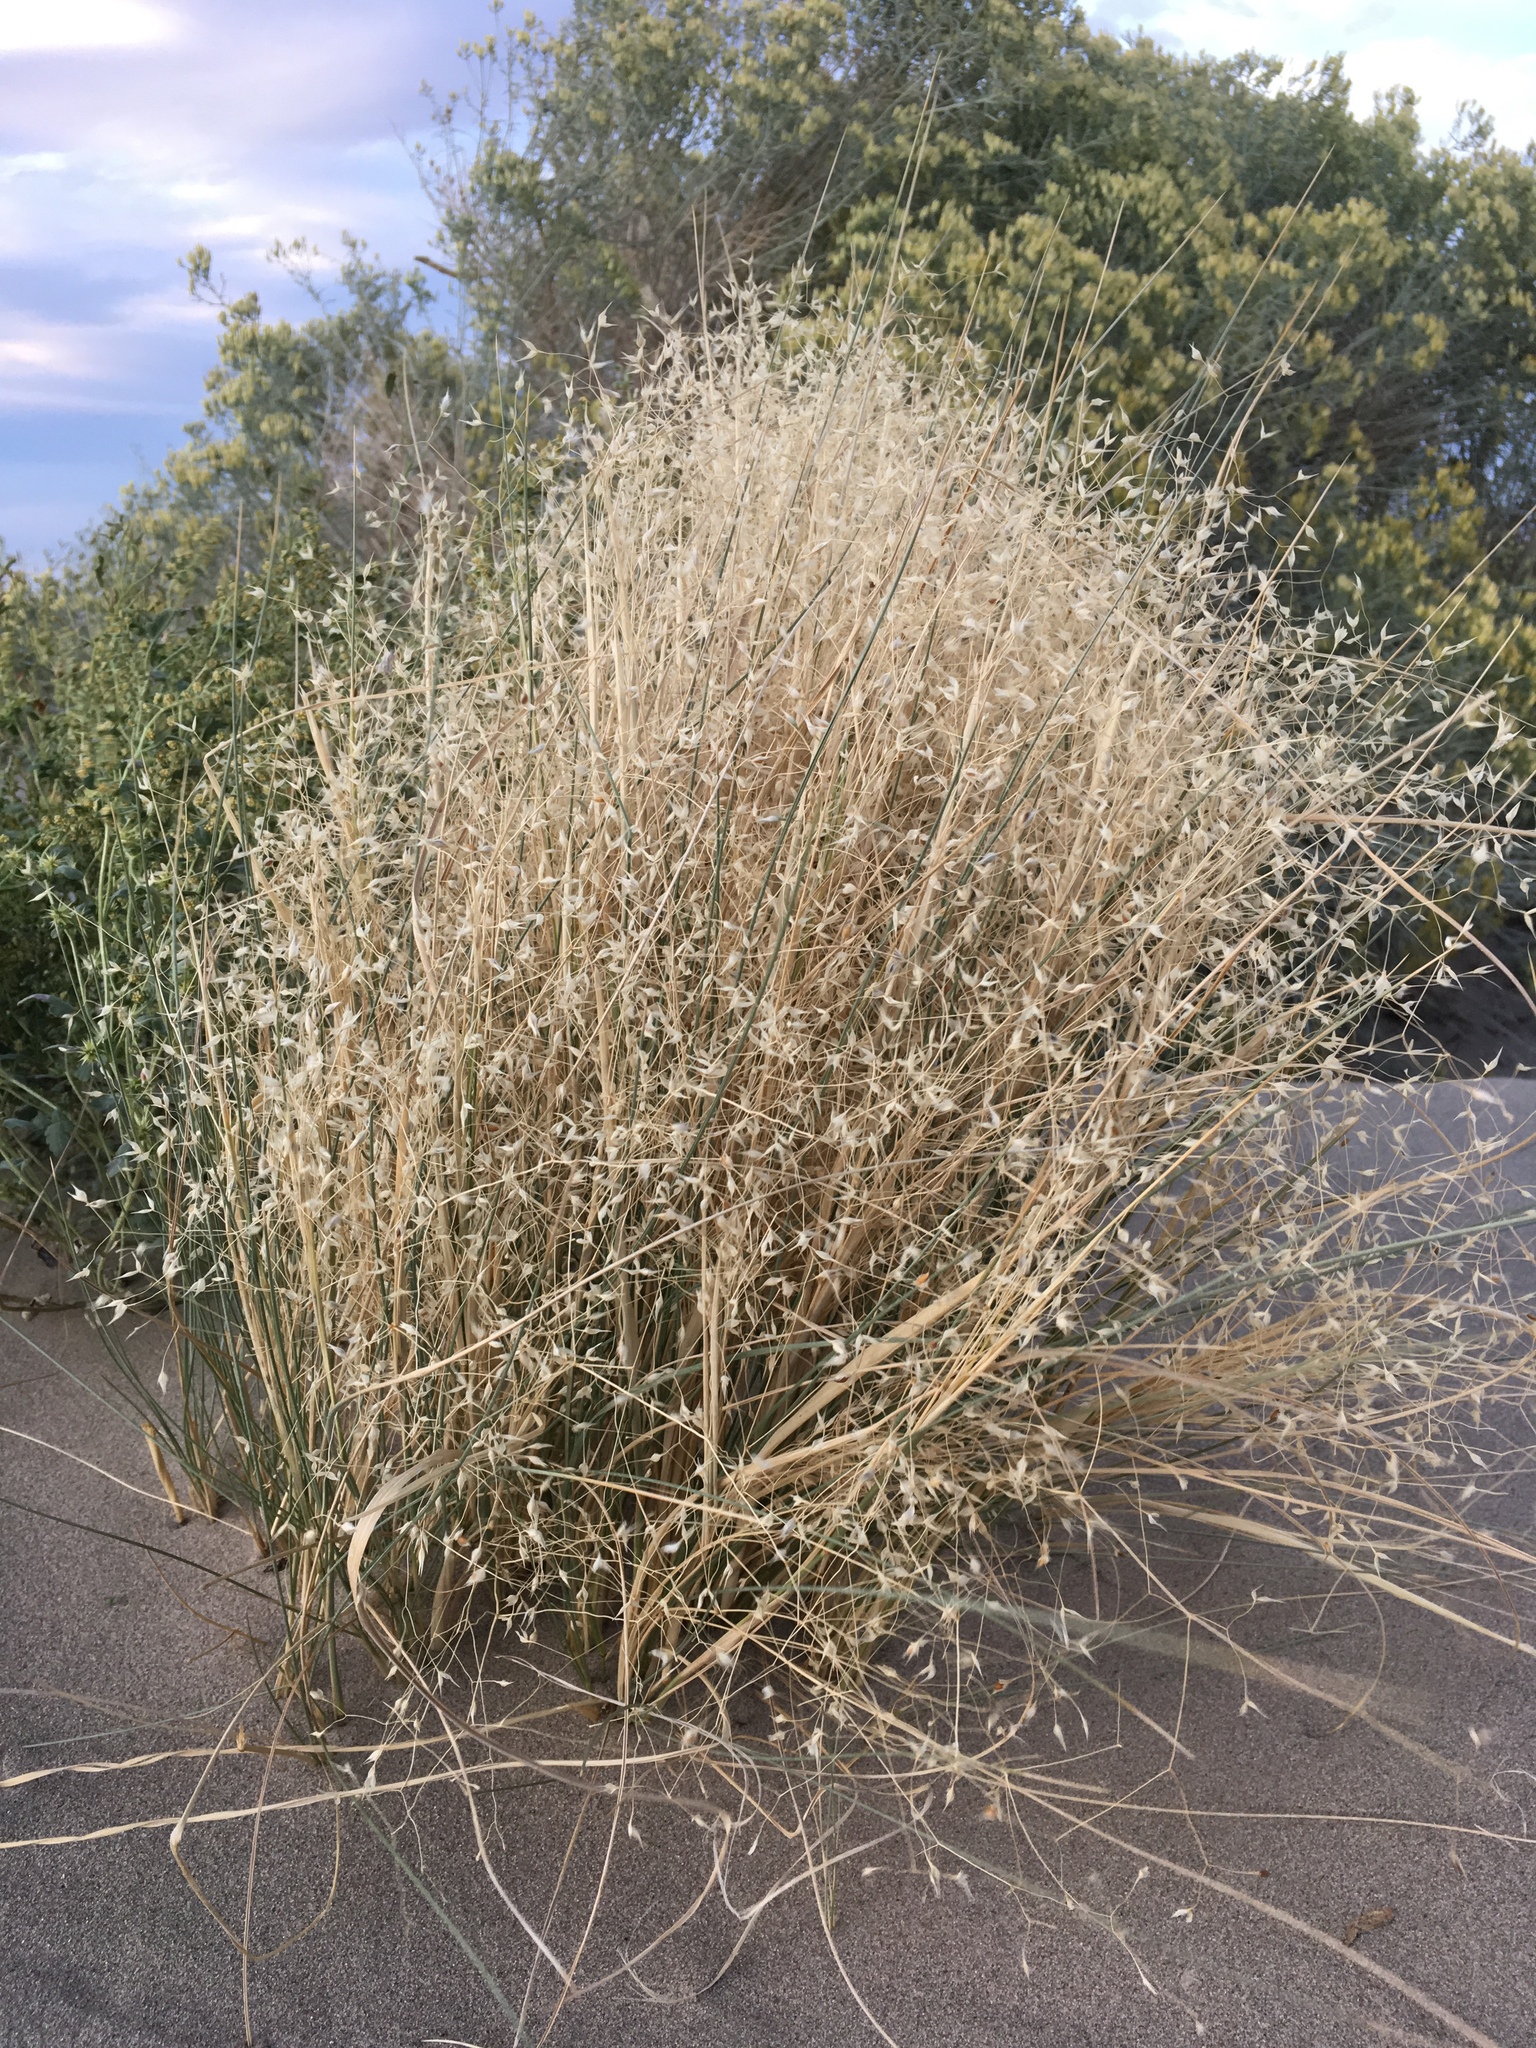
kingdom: Plantae
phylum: Tracheophyta
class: Liliopsida
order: Poales
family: Poaceae
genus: Eriocoma
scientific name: Eriocoma hymenoides
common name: Indian mountain ricegrass
